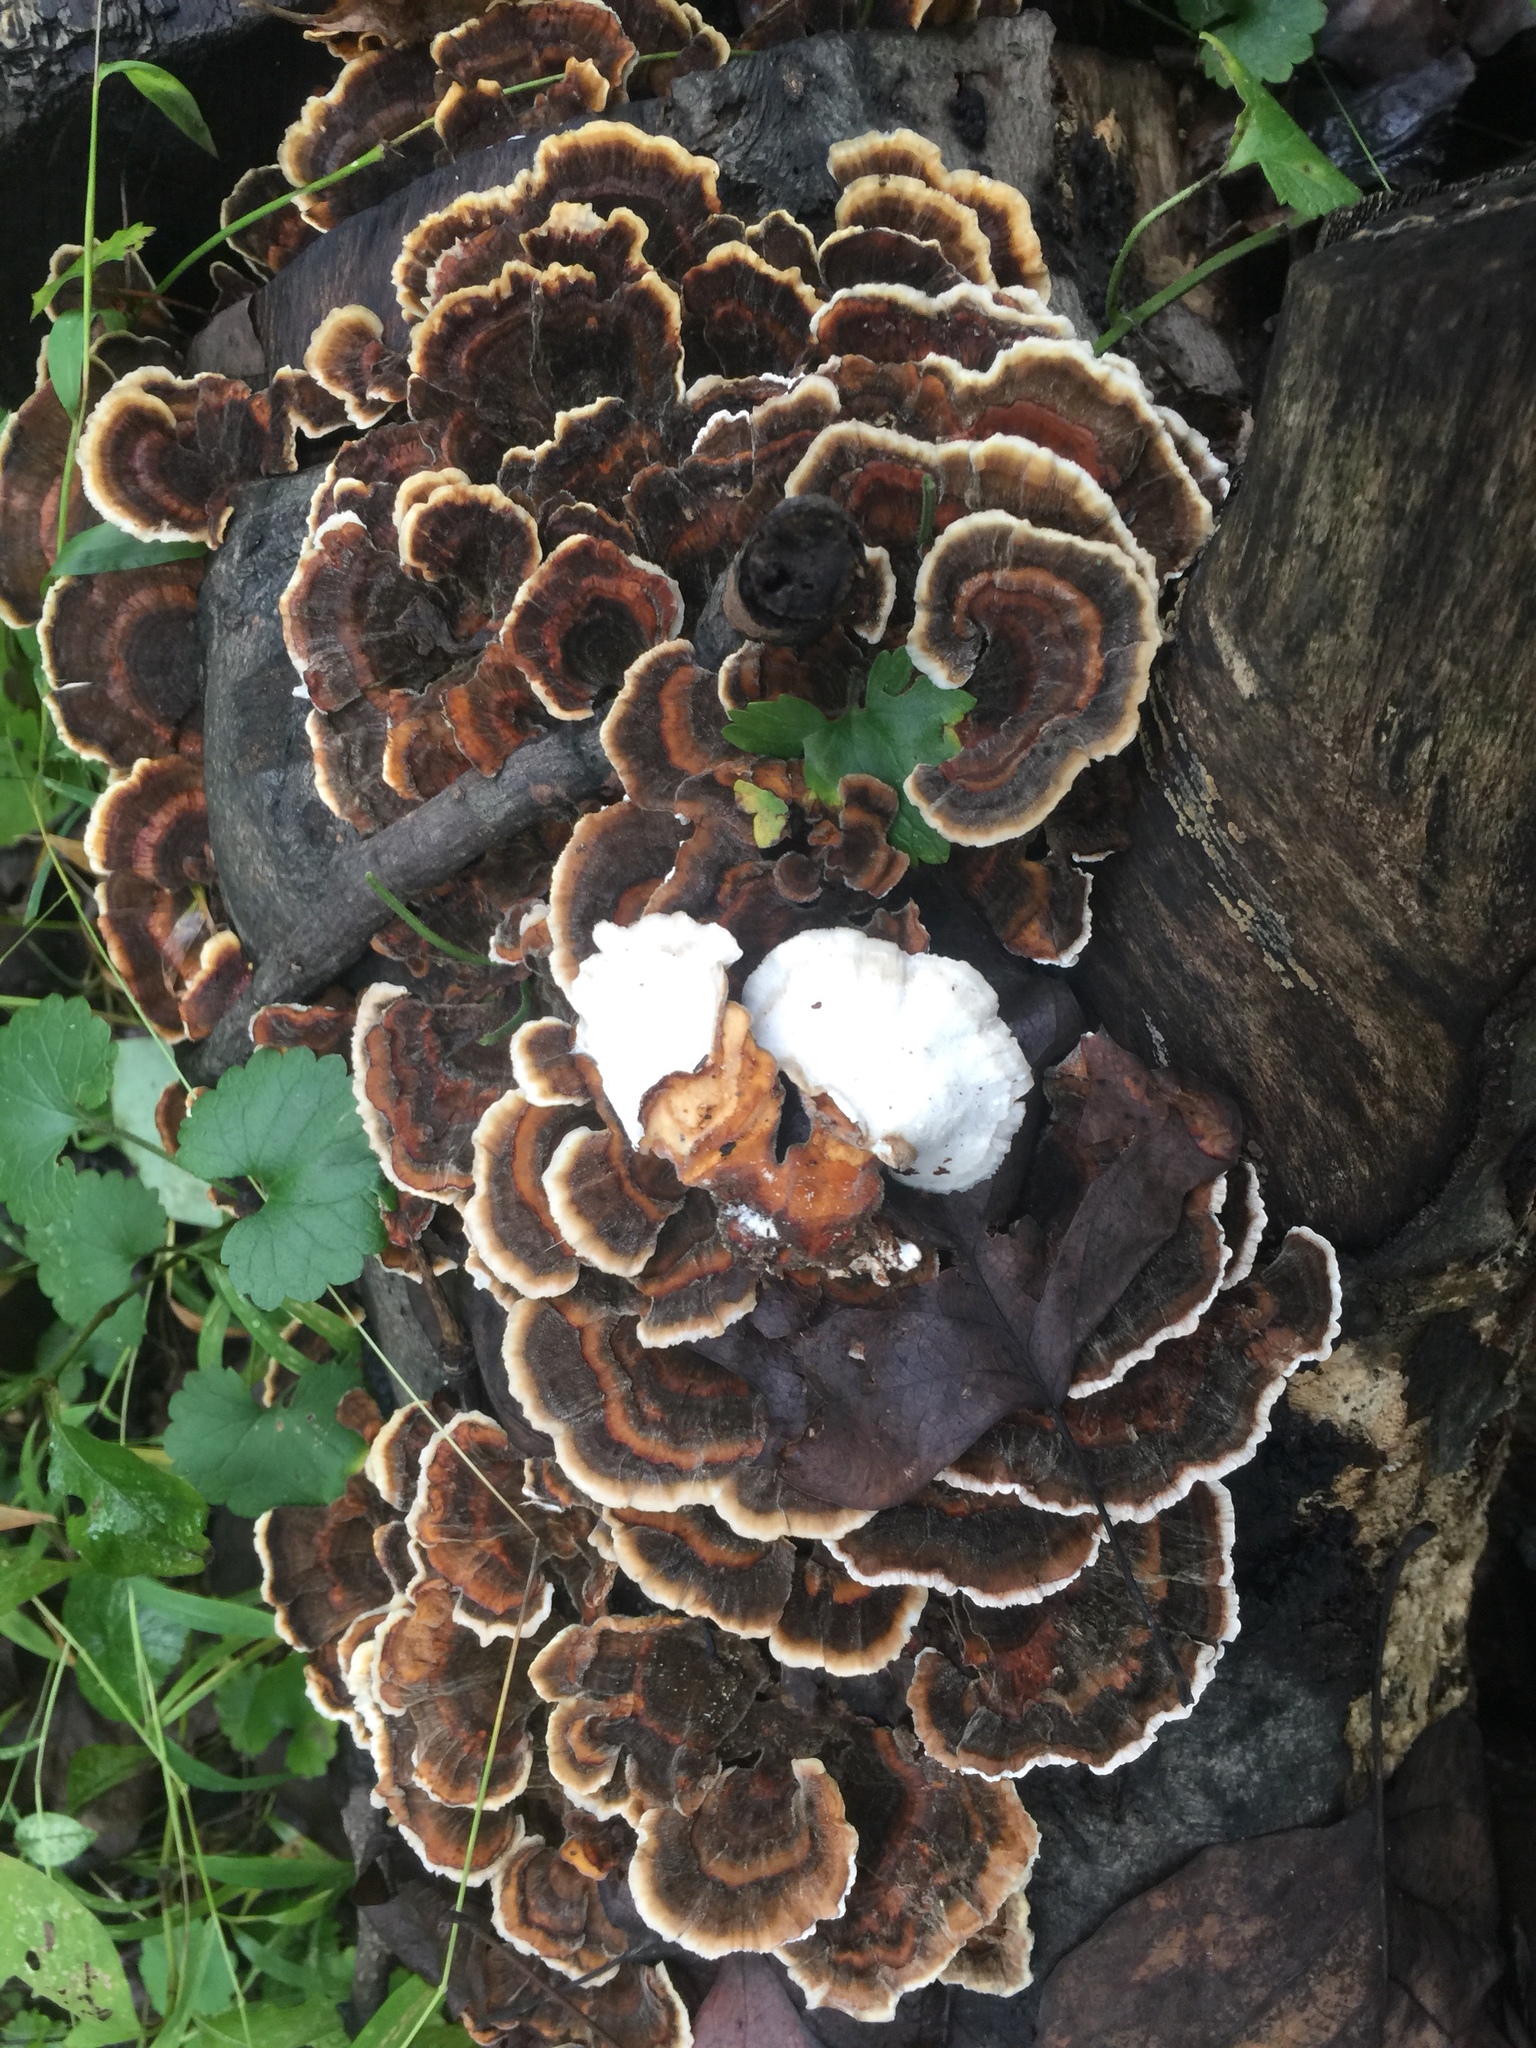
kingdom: Fungi
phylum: Basidiomycota
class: Agaricomycetes
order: Polyporales
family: Polyporaceae
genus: Trametes
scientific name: Trametes versicolor
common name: Turkeytail
